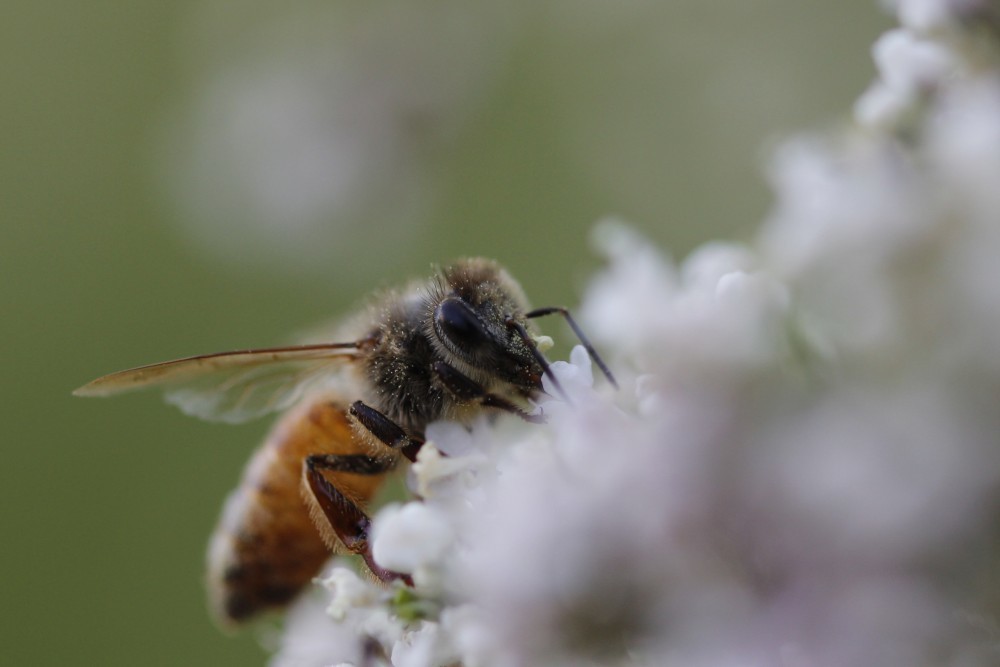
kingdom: Animalia
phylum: Arthropoda
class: Insecta
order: Hymenoptera
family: Apidae
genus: Apis
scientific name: Apis mellifera
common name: Honey bee
